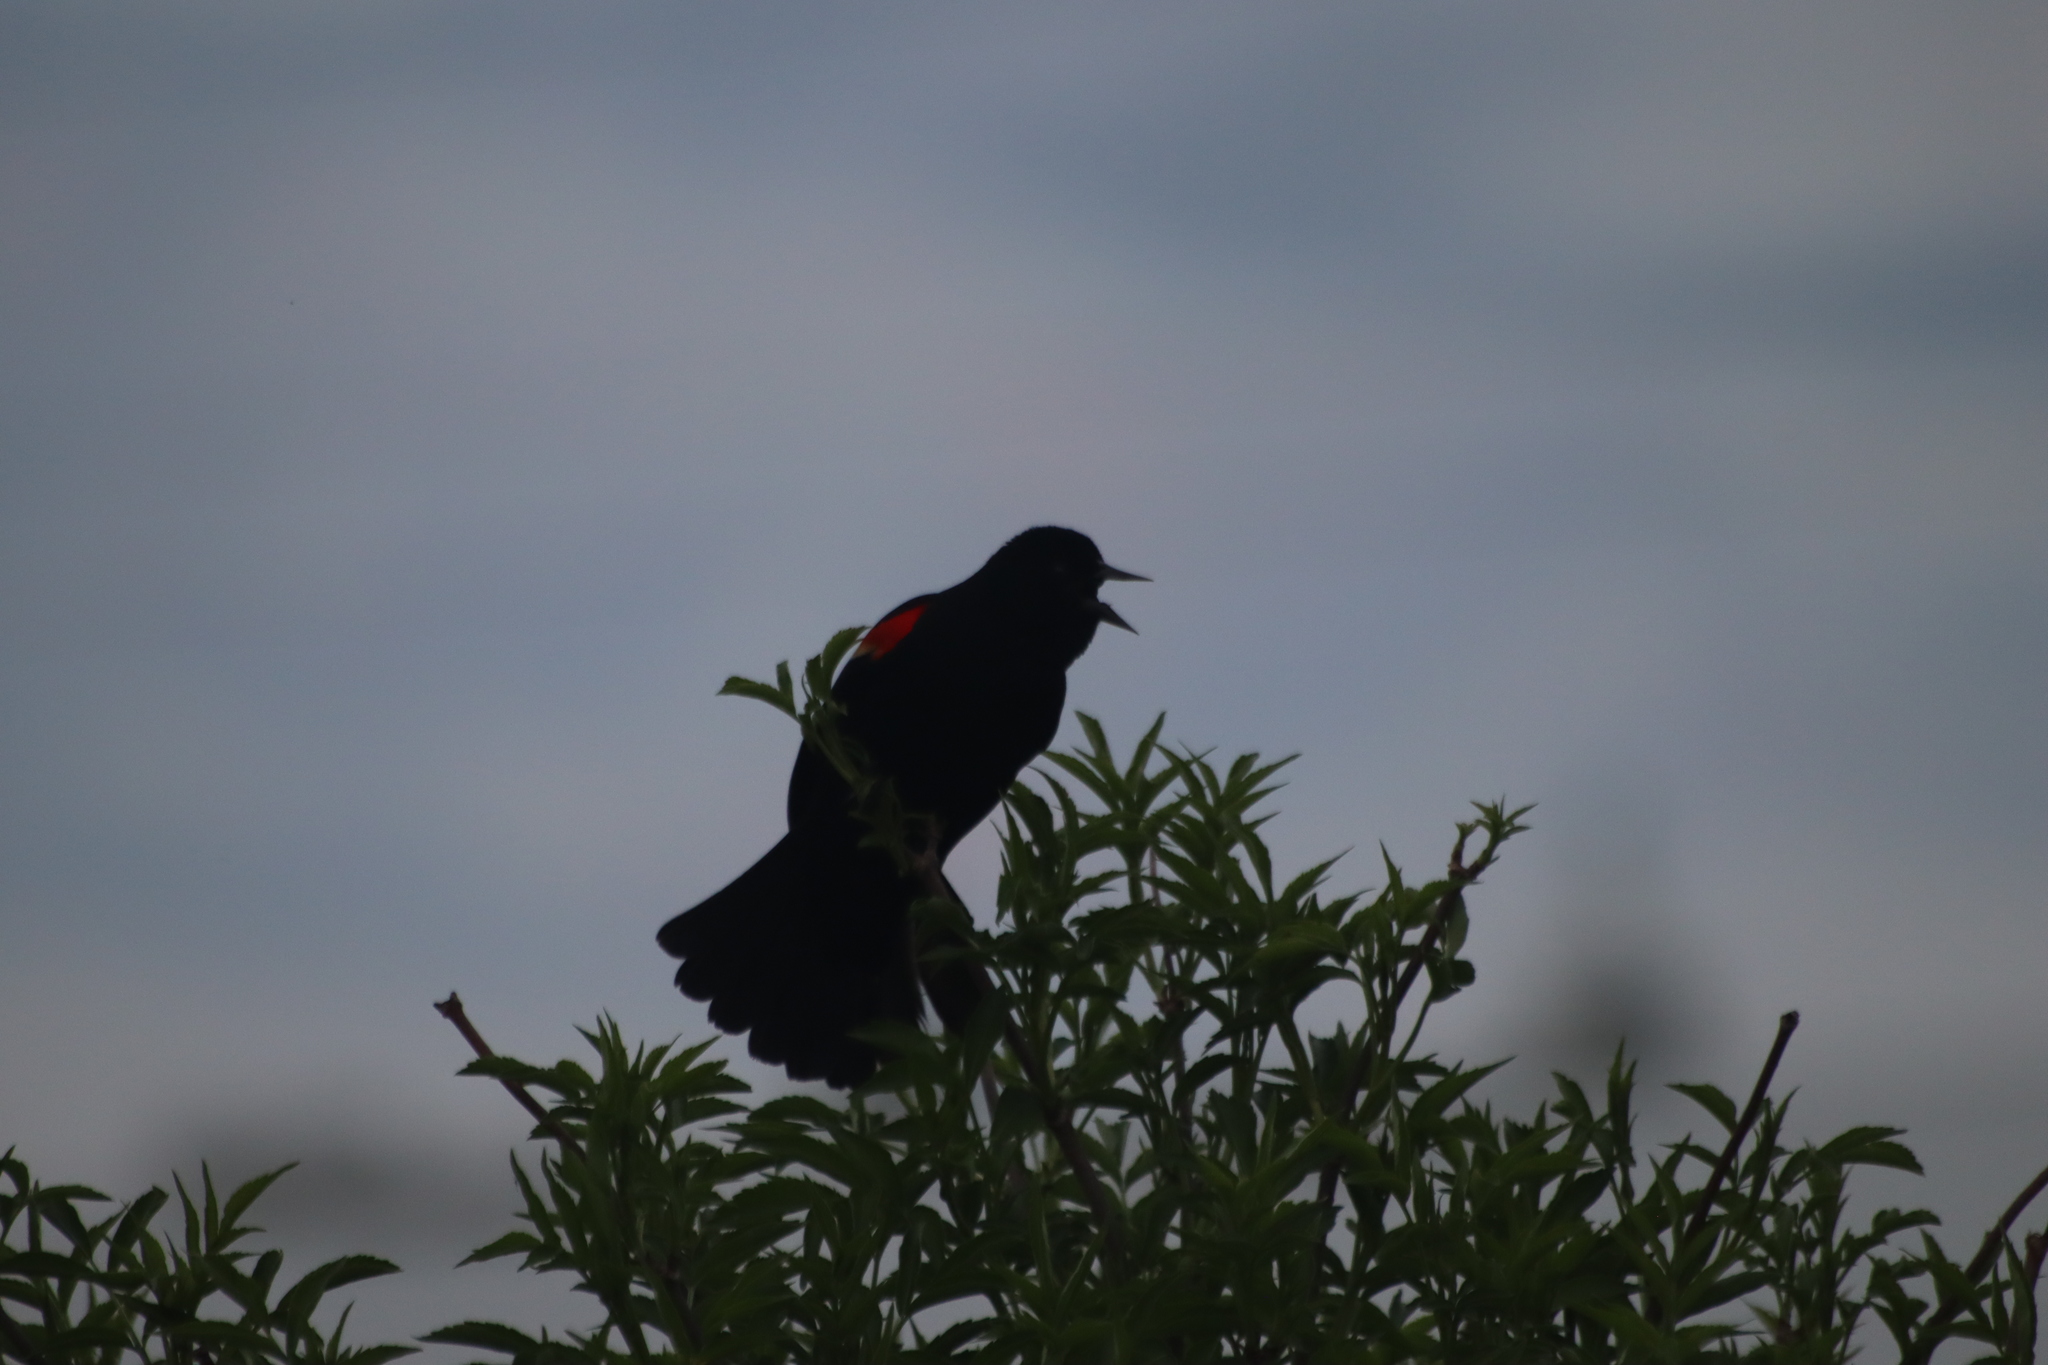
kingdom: Animalia
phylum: Chordata
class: Aves
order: Passeriformes
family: Icteridae
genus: Agelaius
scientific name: Agelaius phoeniceus
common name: Red-winged blackbird
